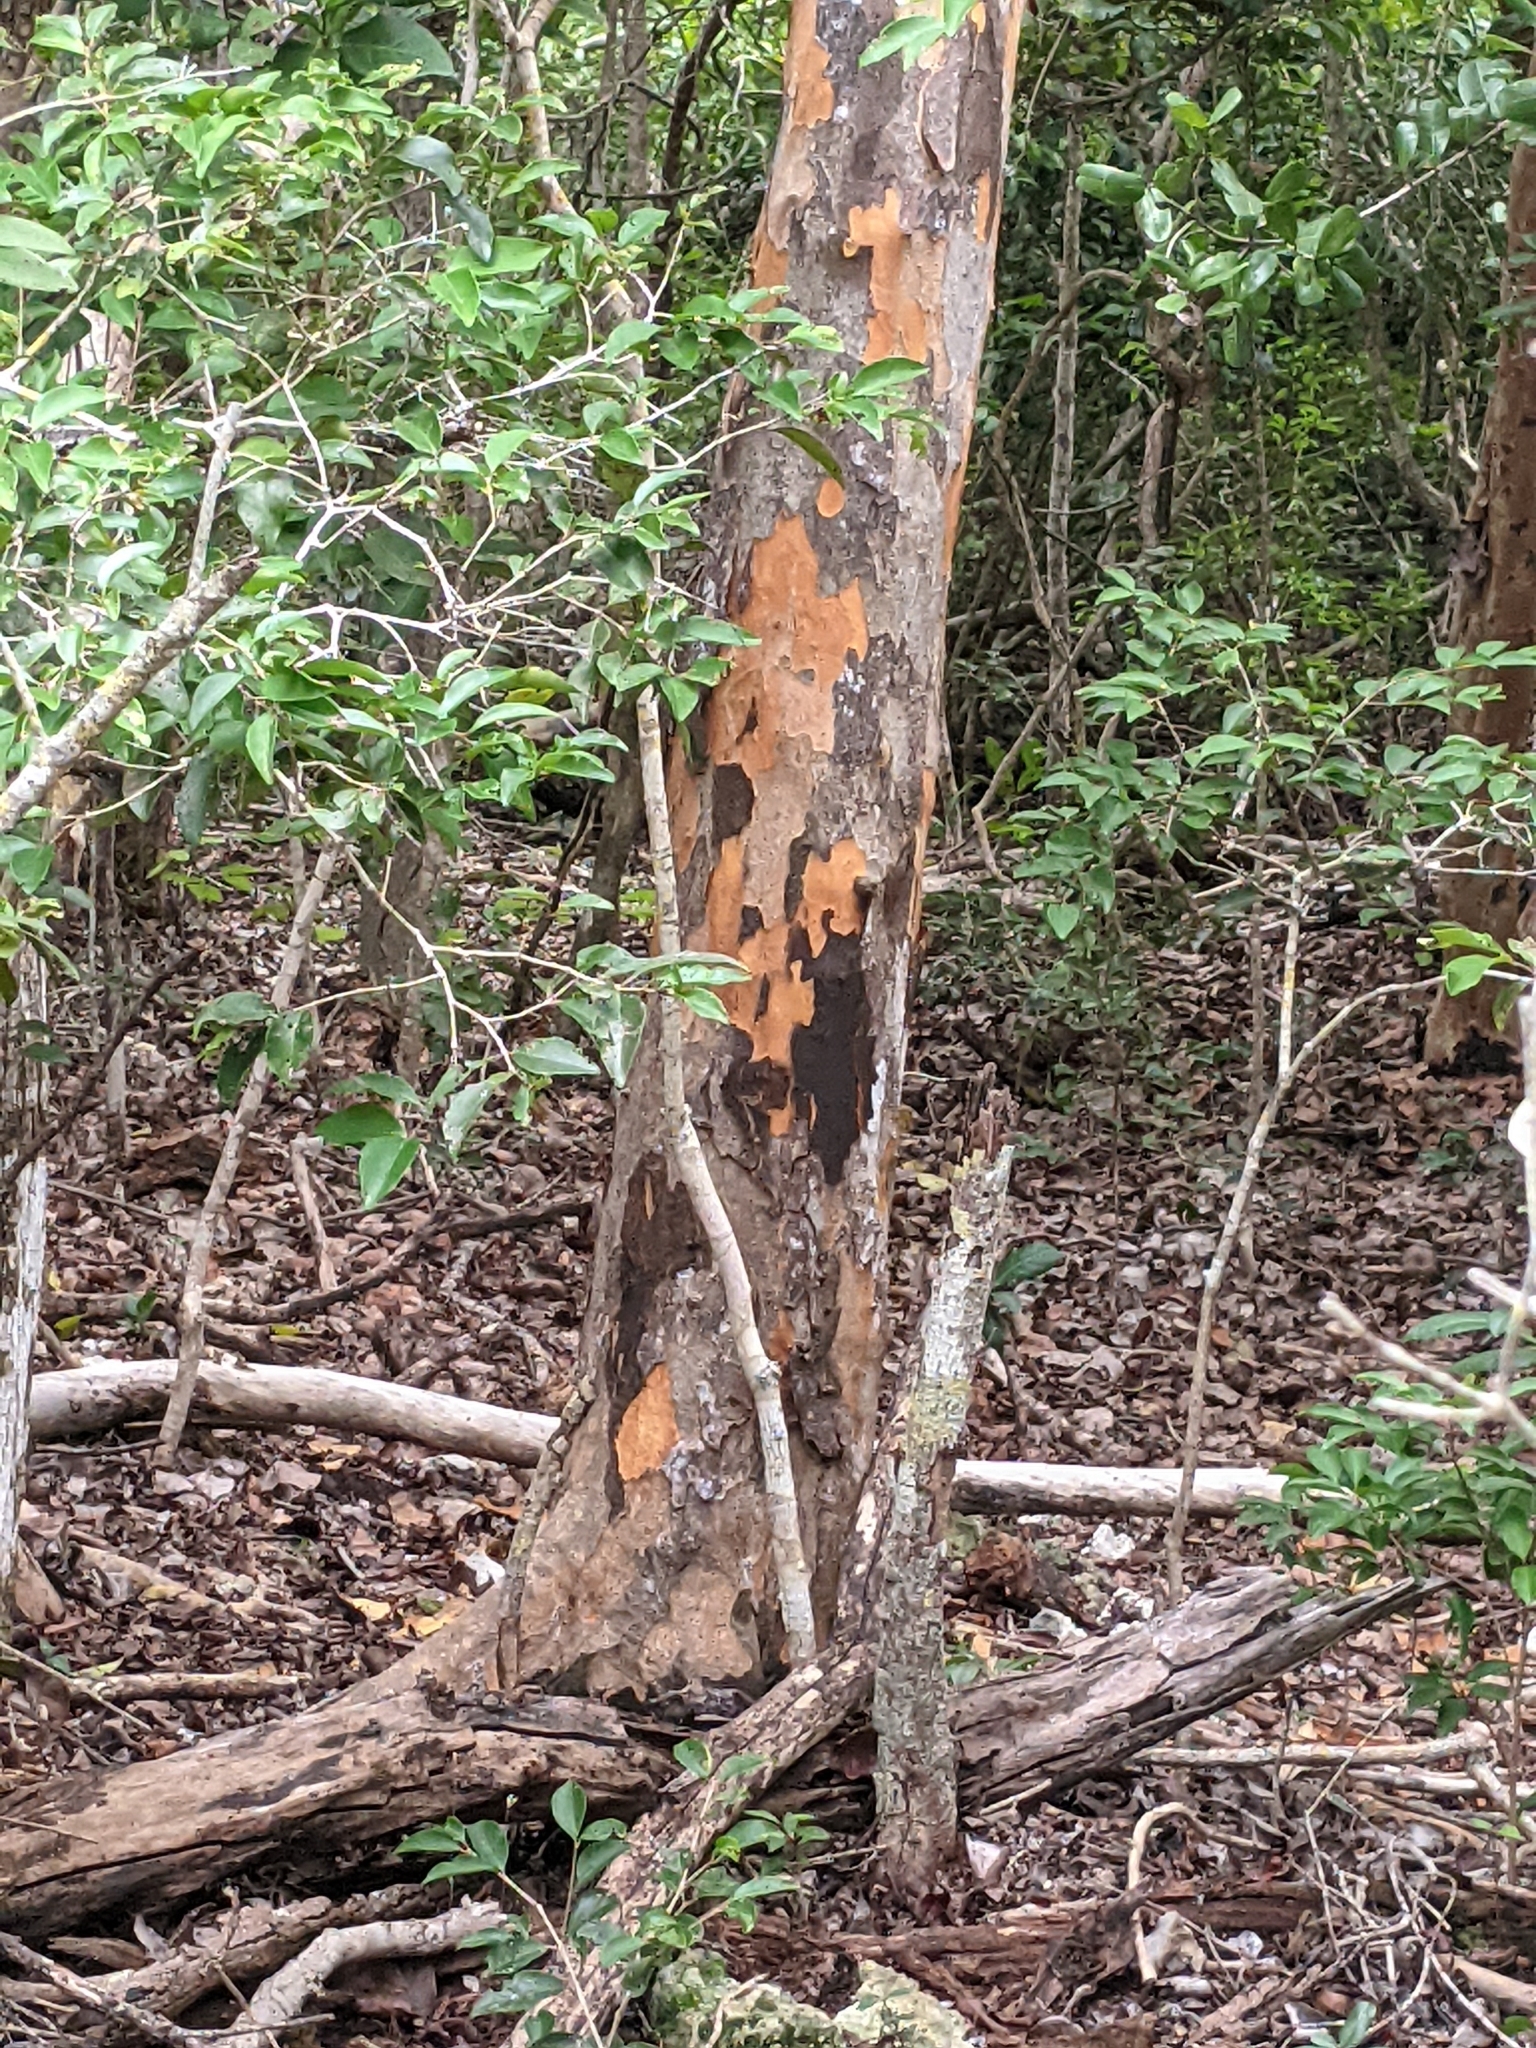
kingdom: Plantae
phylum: Tracheophyta
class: Magnoliopsida
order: Sapindales
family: Anacardiaceae
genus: Metopium
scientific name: Metopium toxiferum
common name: Florida poisontree
